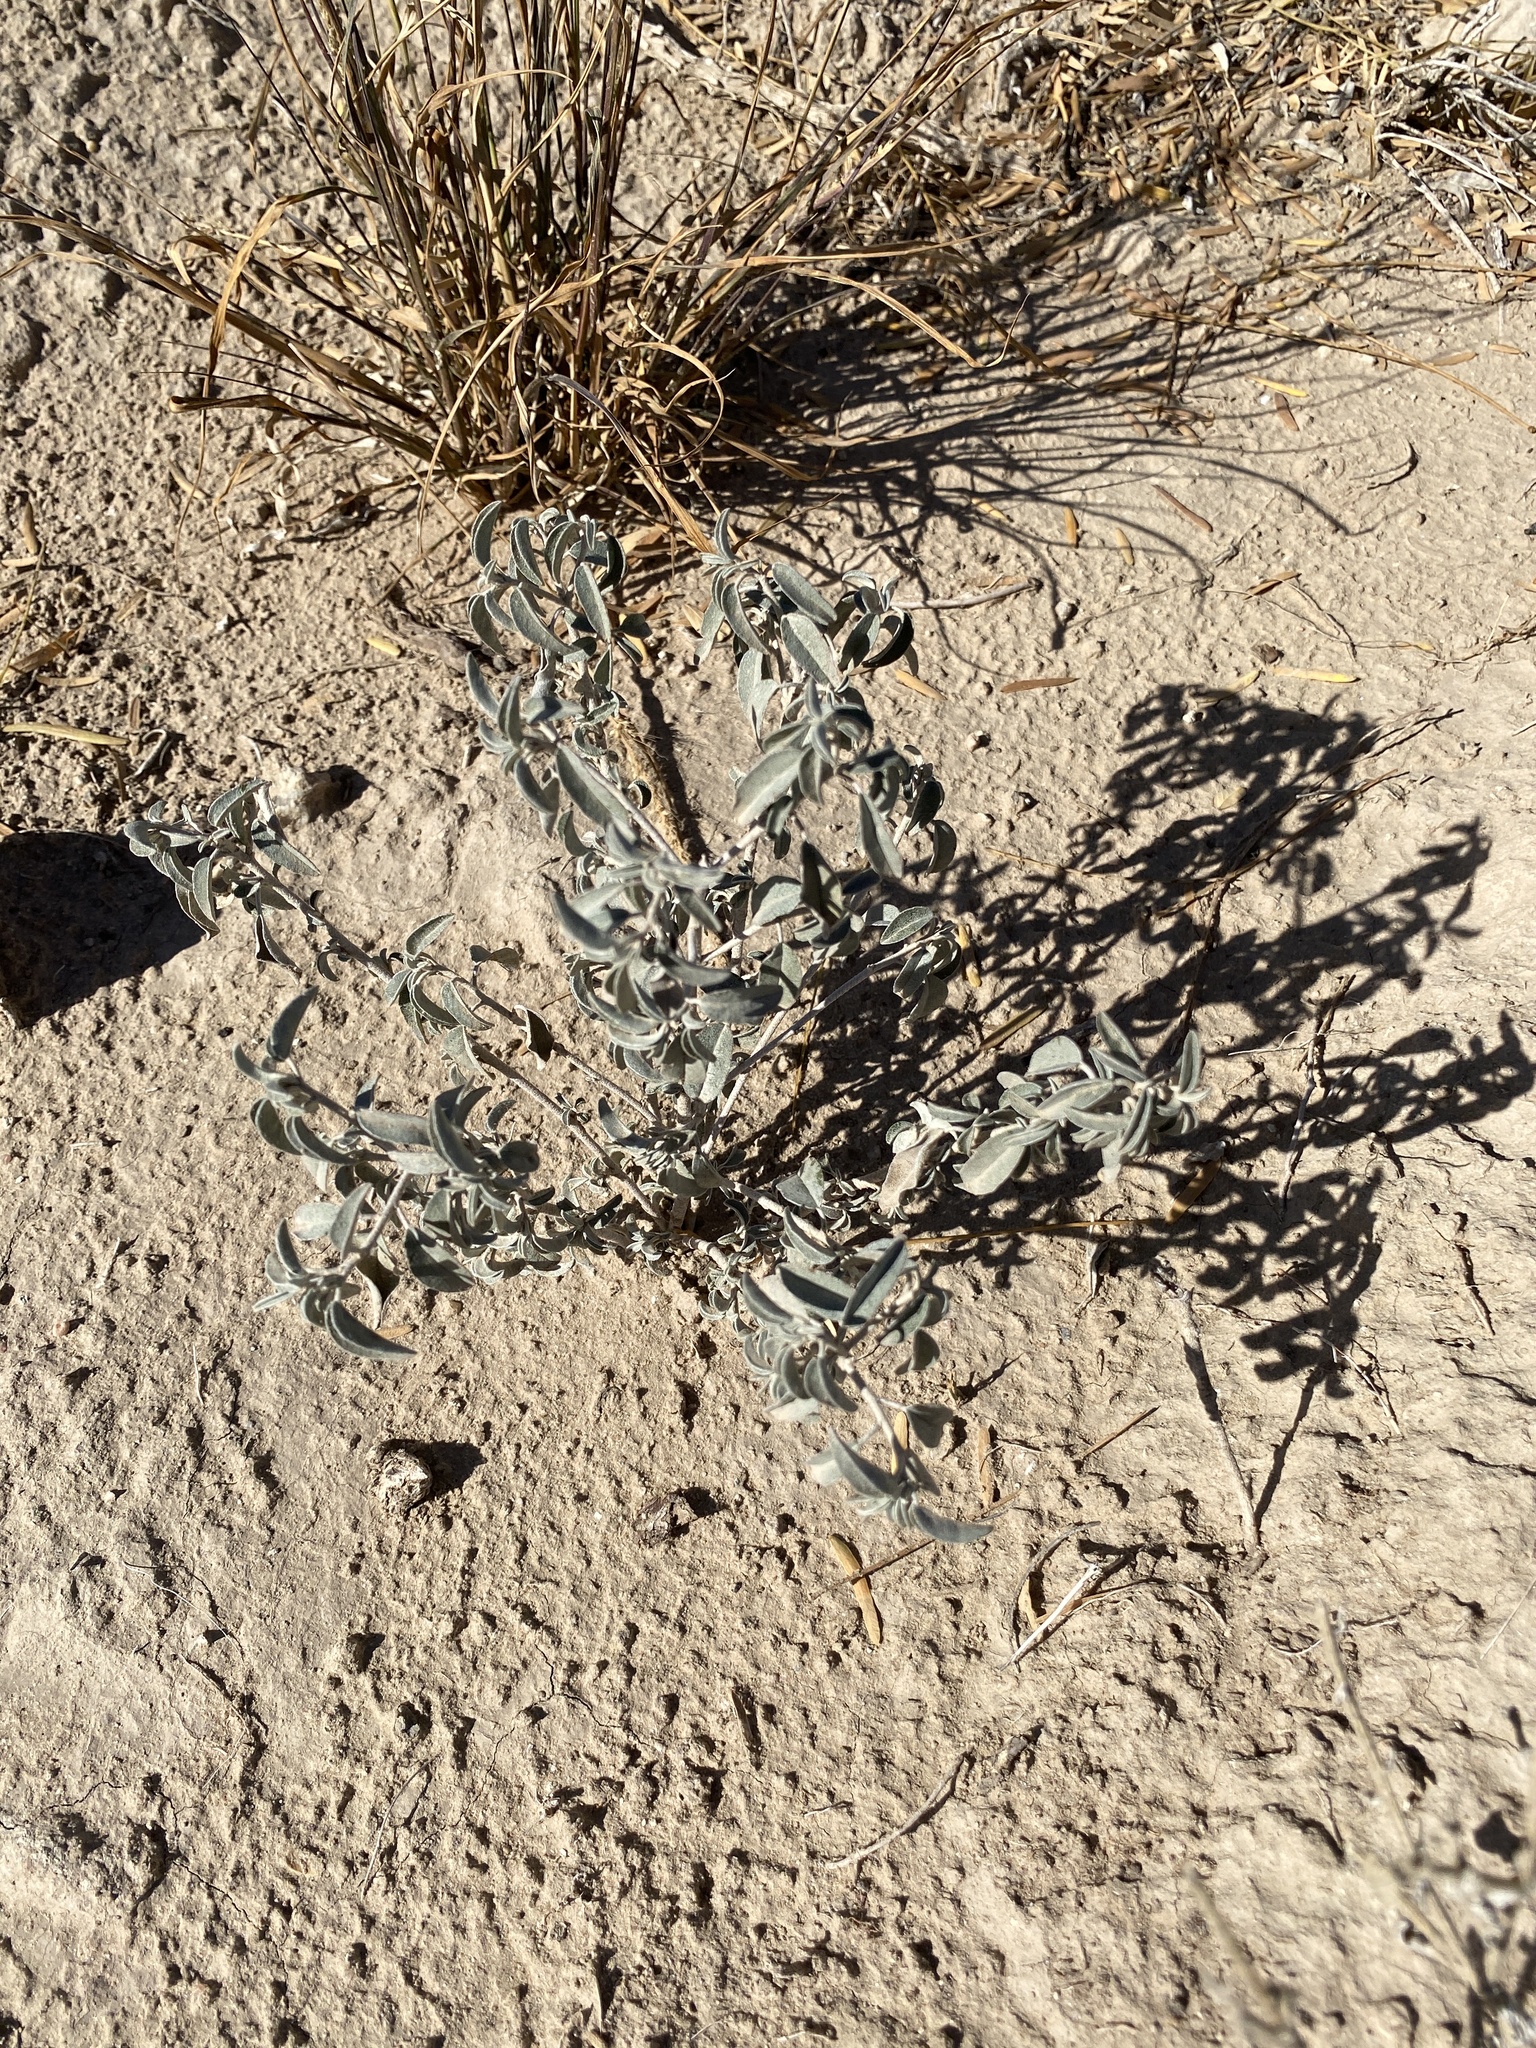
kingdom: Plantae
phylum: Tracheophyta
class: Magnoliopsida
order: Malpighiales
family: Euphorbiaceae
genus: Croton
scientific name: Croton dioicus
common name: Grassland croton
